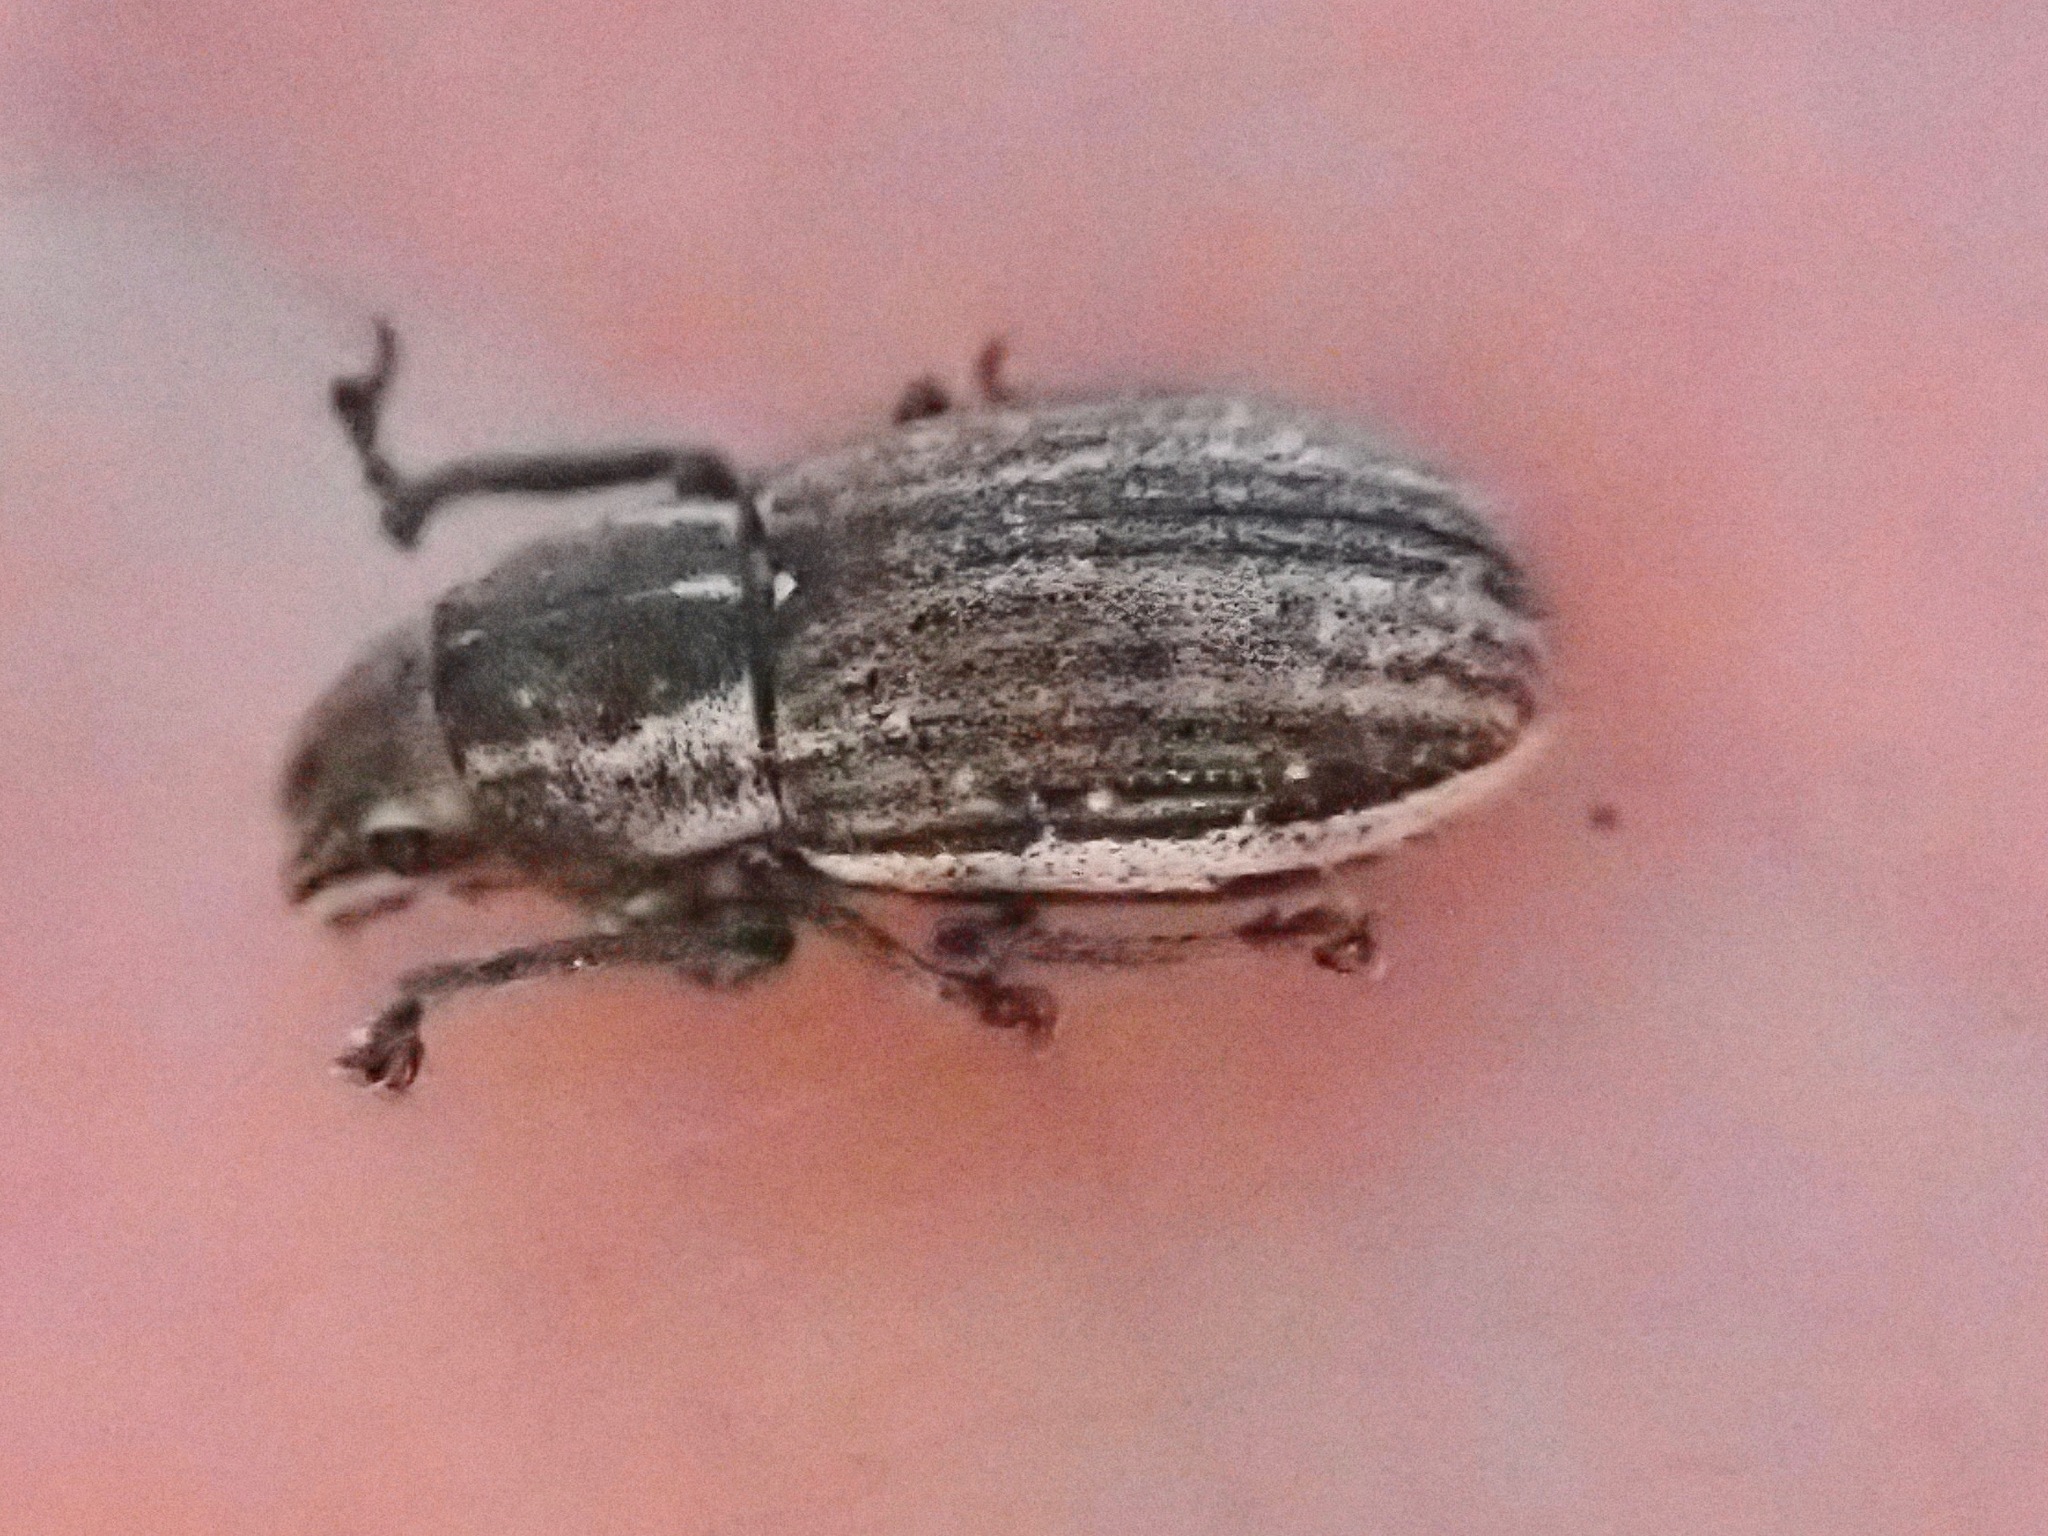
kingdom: Animalia
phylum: Arthropoda
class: Insecta
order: Coleoptera
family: Curculionidae
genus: Naupactus
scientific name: Naupactus leucoloma
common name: Whitefringed beetle
